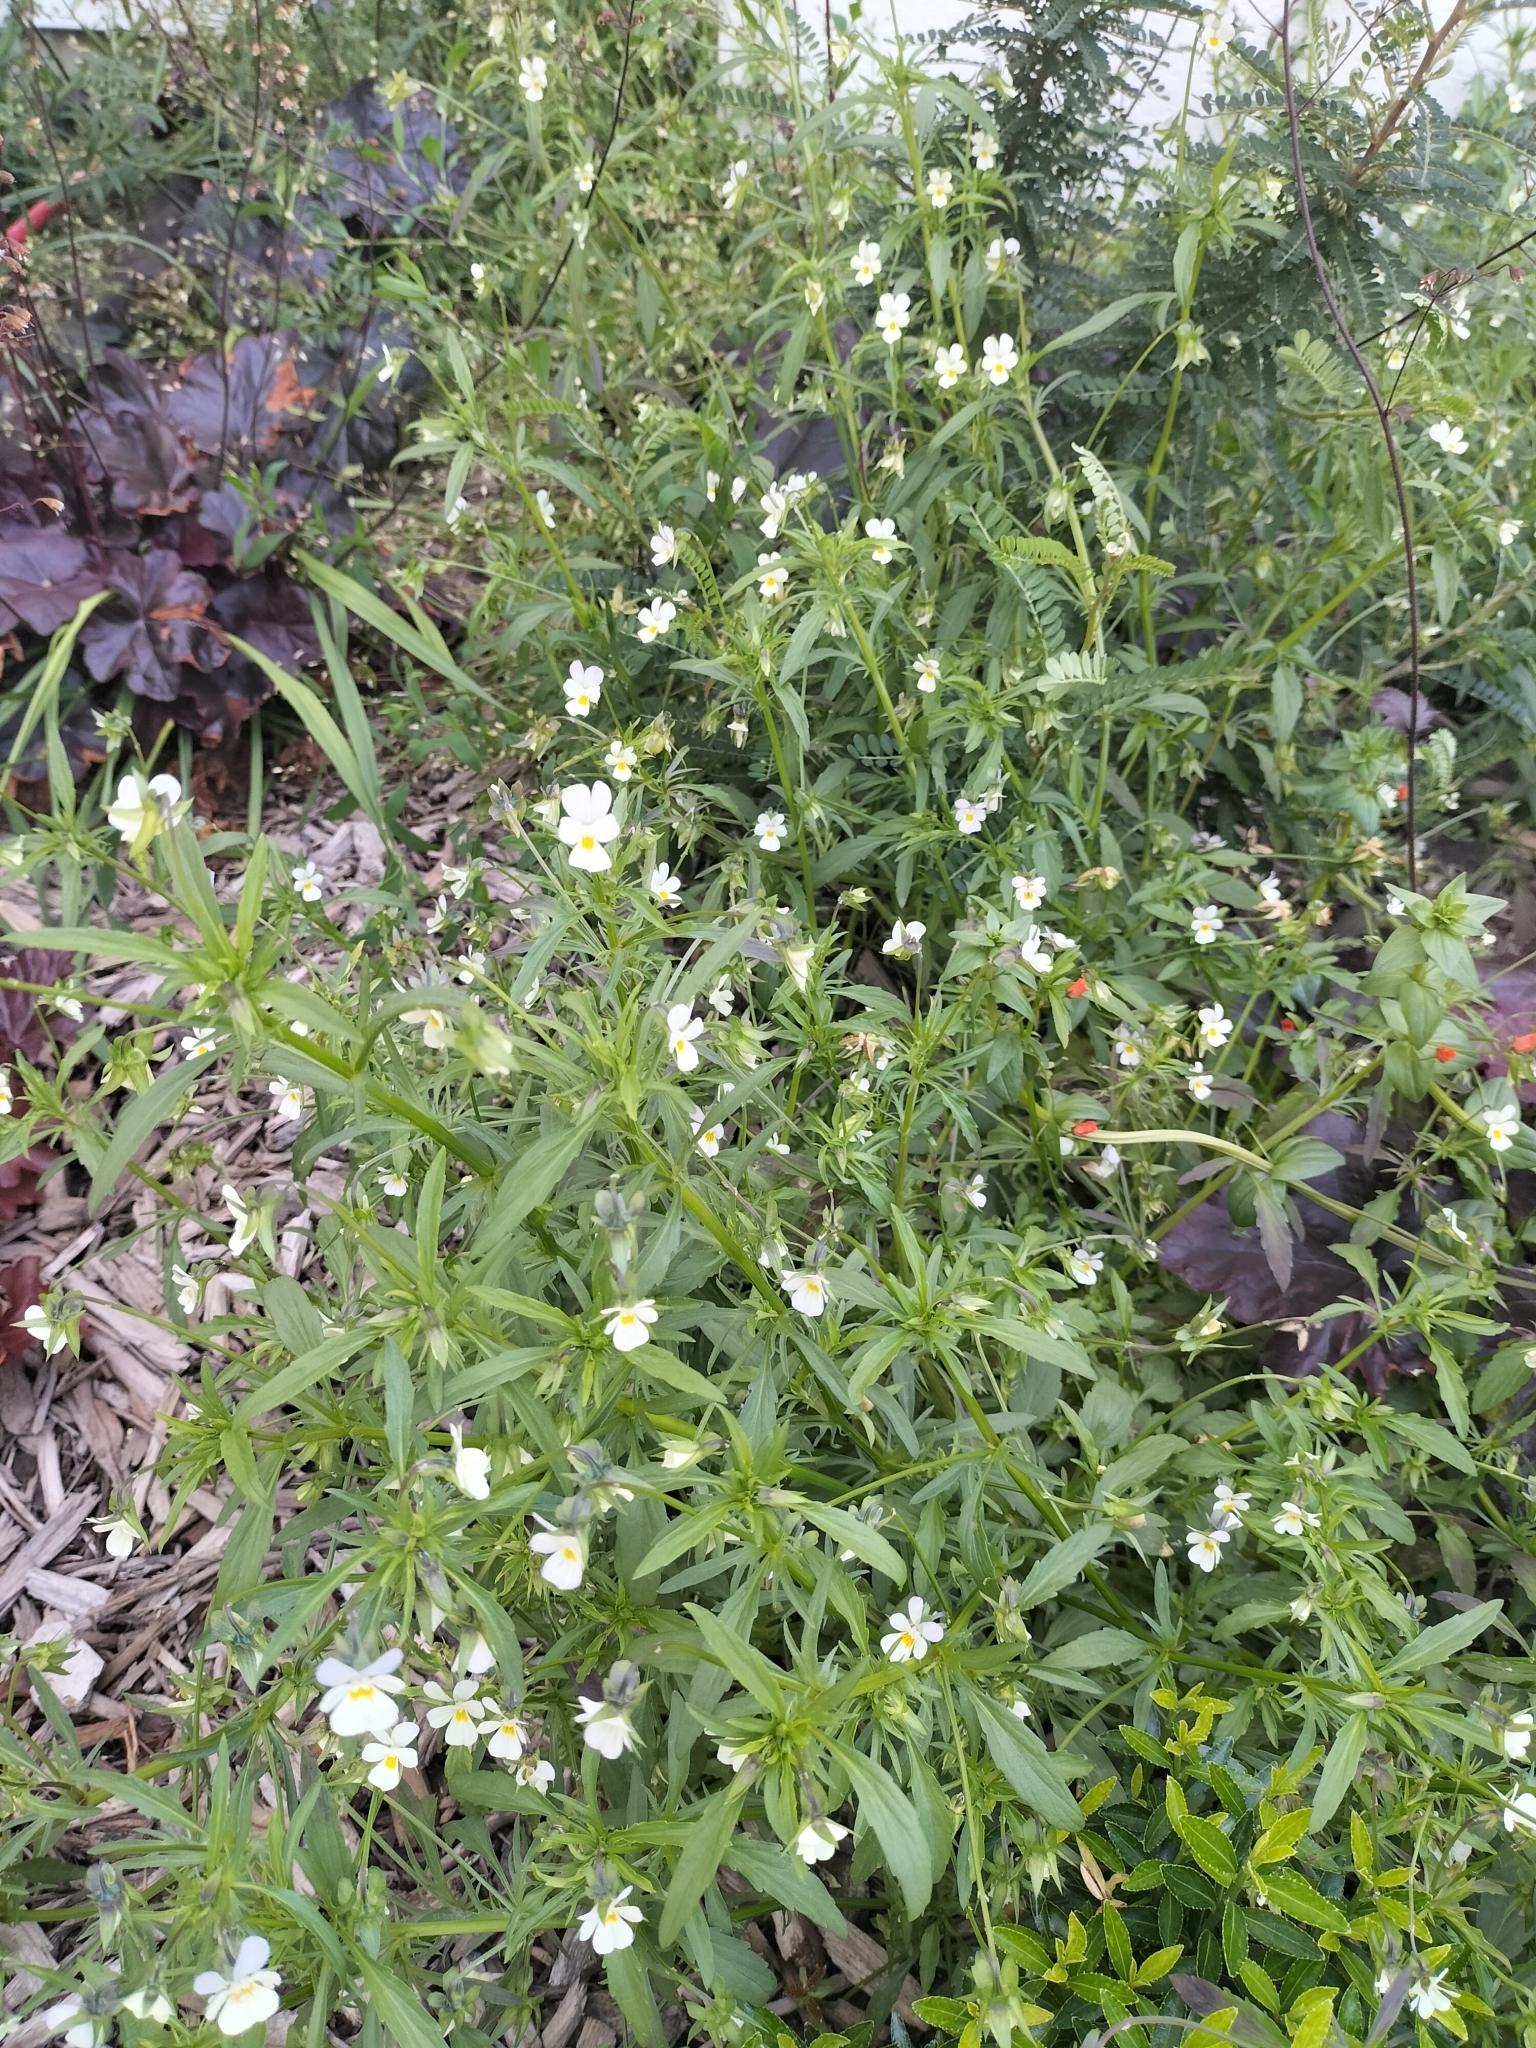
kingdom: Plantae
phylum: Tracheophyta
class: Magnoliopsida
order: Malpighiales
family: Violaceae
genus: Viola
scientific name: Viola arvensis
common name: Field pansy
